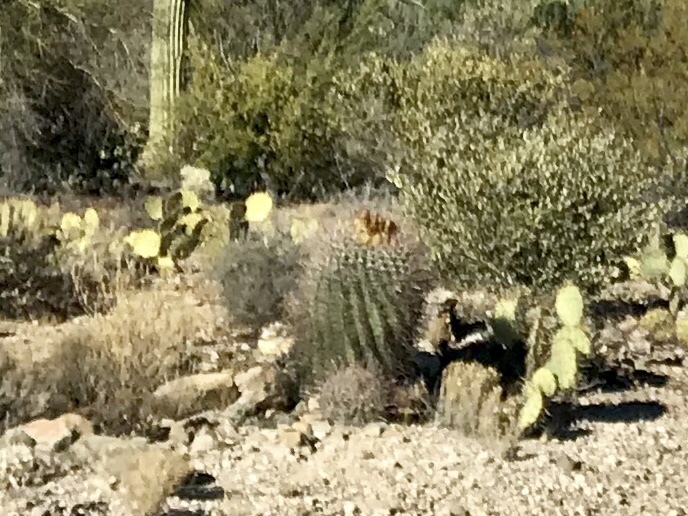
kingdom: Plantae
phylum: Tracheophyta
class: Magnoliopsida
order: Caryophyllales
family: Cactaceae
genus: Ferocactus
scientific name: Ferocactus wislizeni
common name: Candy barrel cactus
